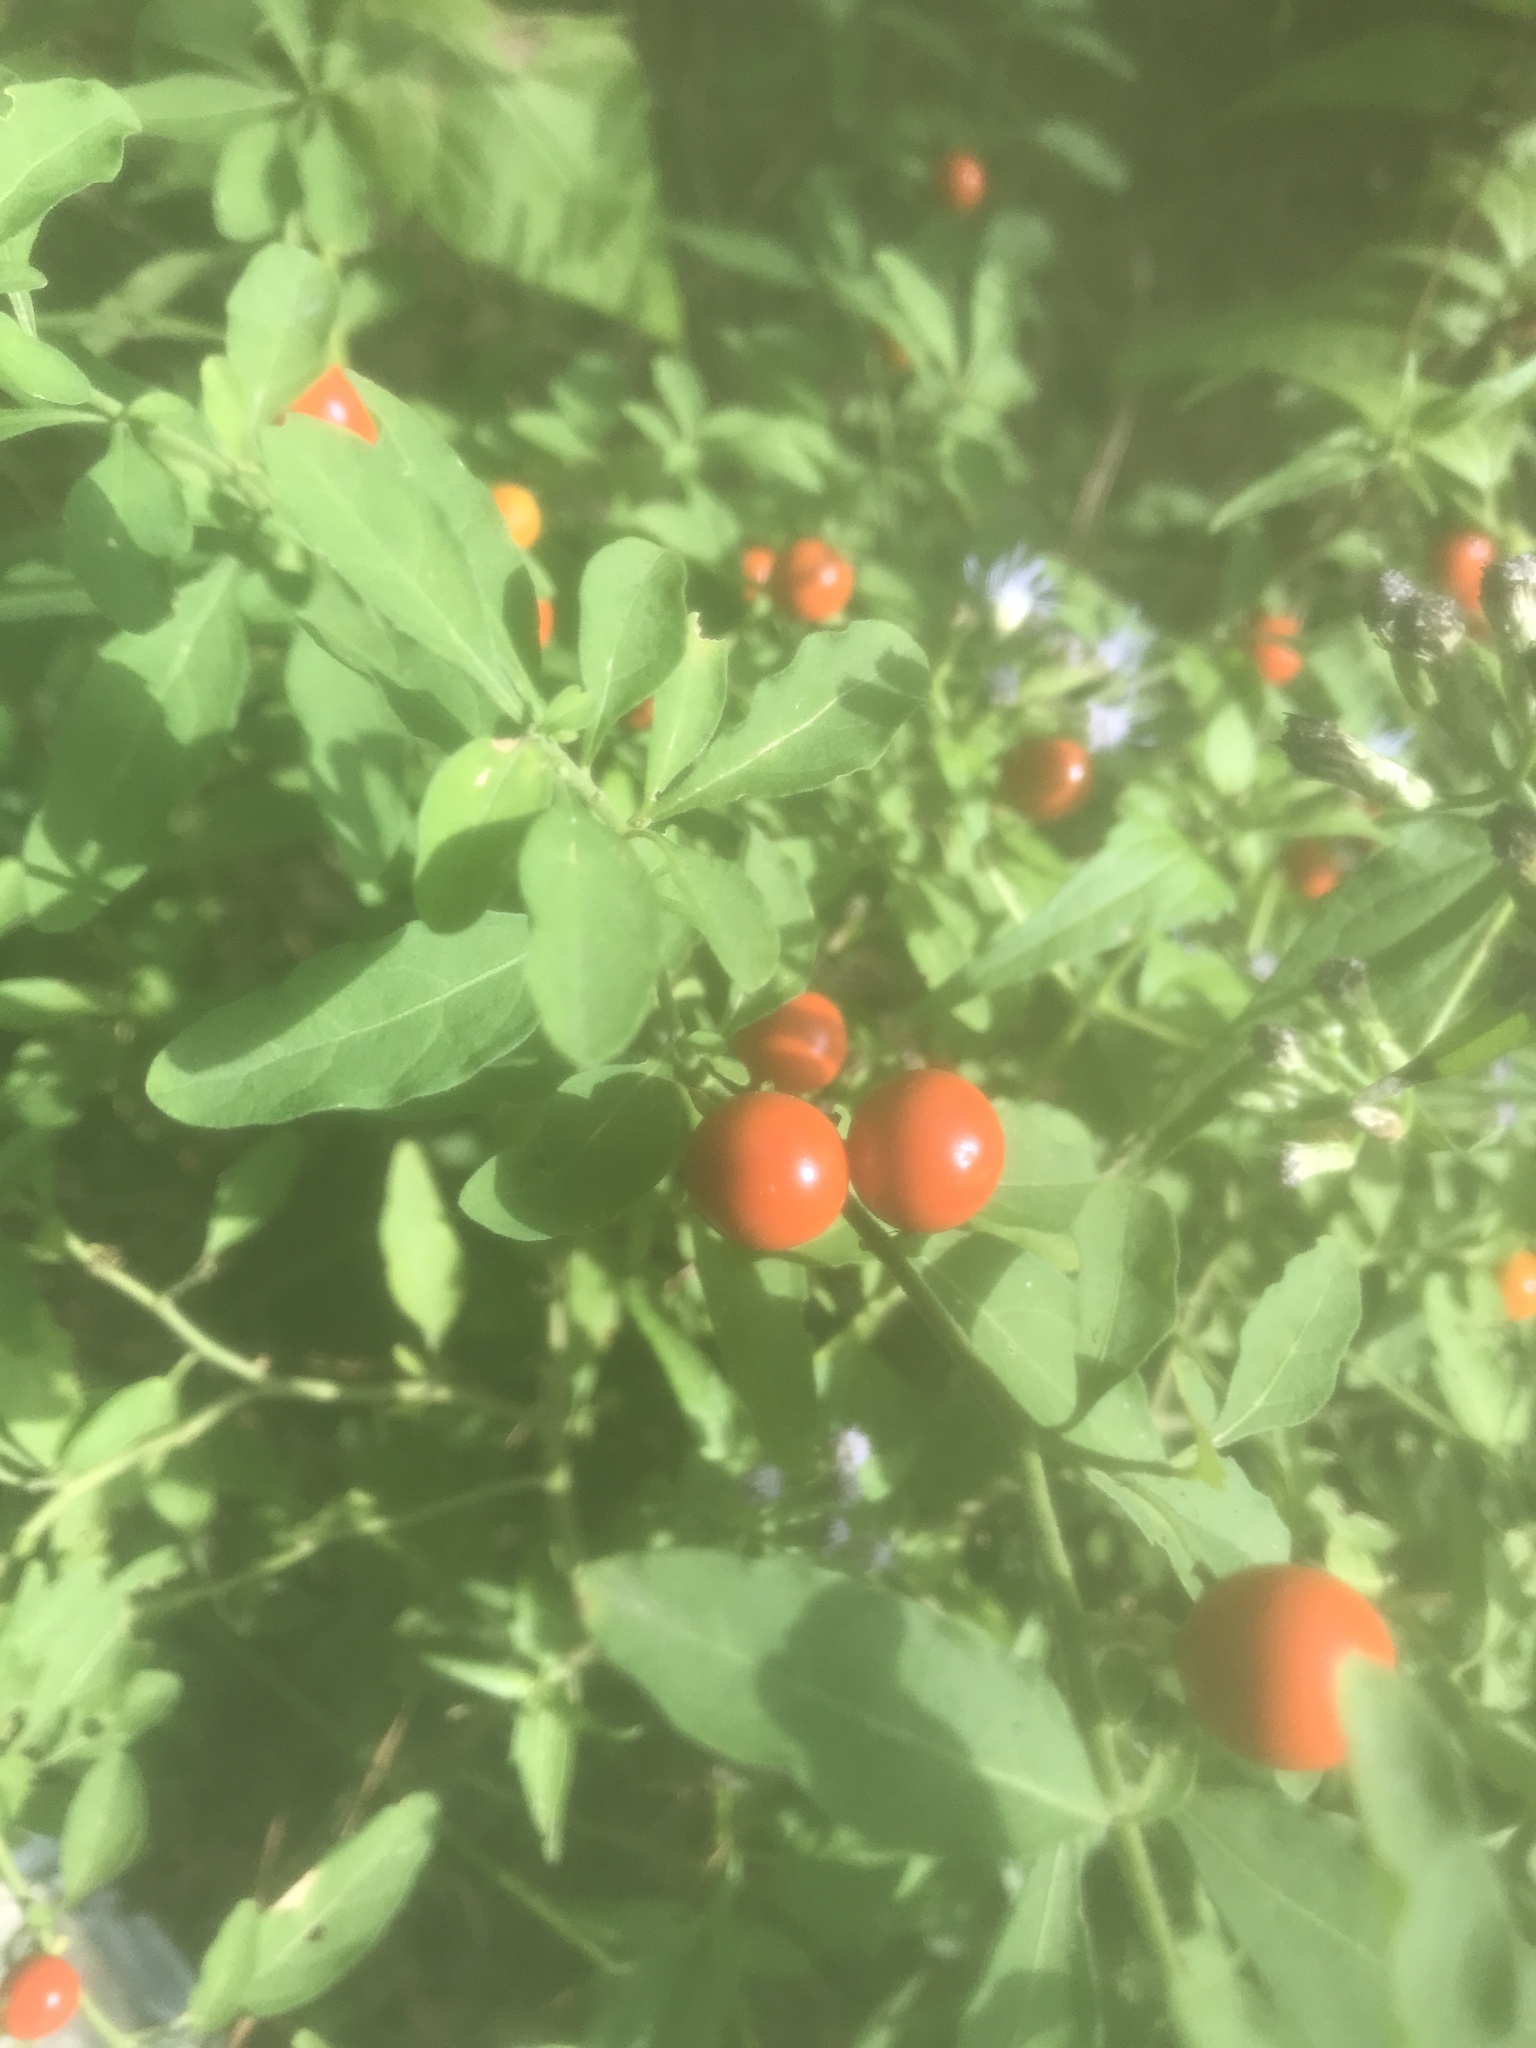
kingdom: Plantae
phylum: Tracheophyta
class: Magnoliopsida
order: Solanales
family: Solanaceae
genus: Solanum
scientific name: Solanum pseudocapsicum
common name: Jerusalem cherry
